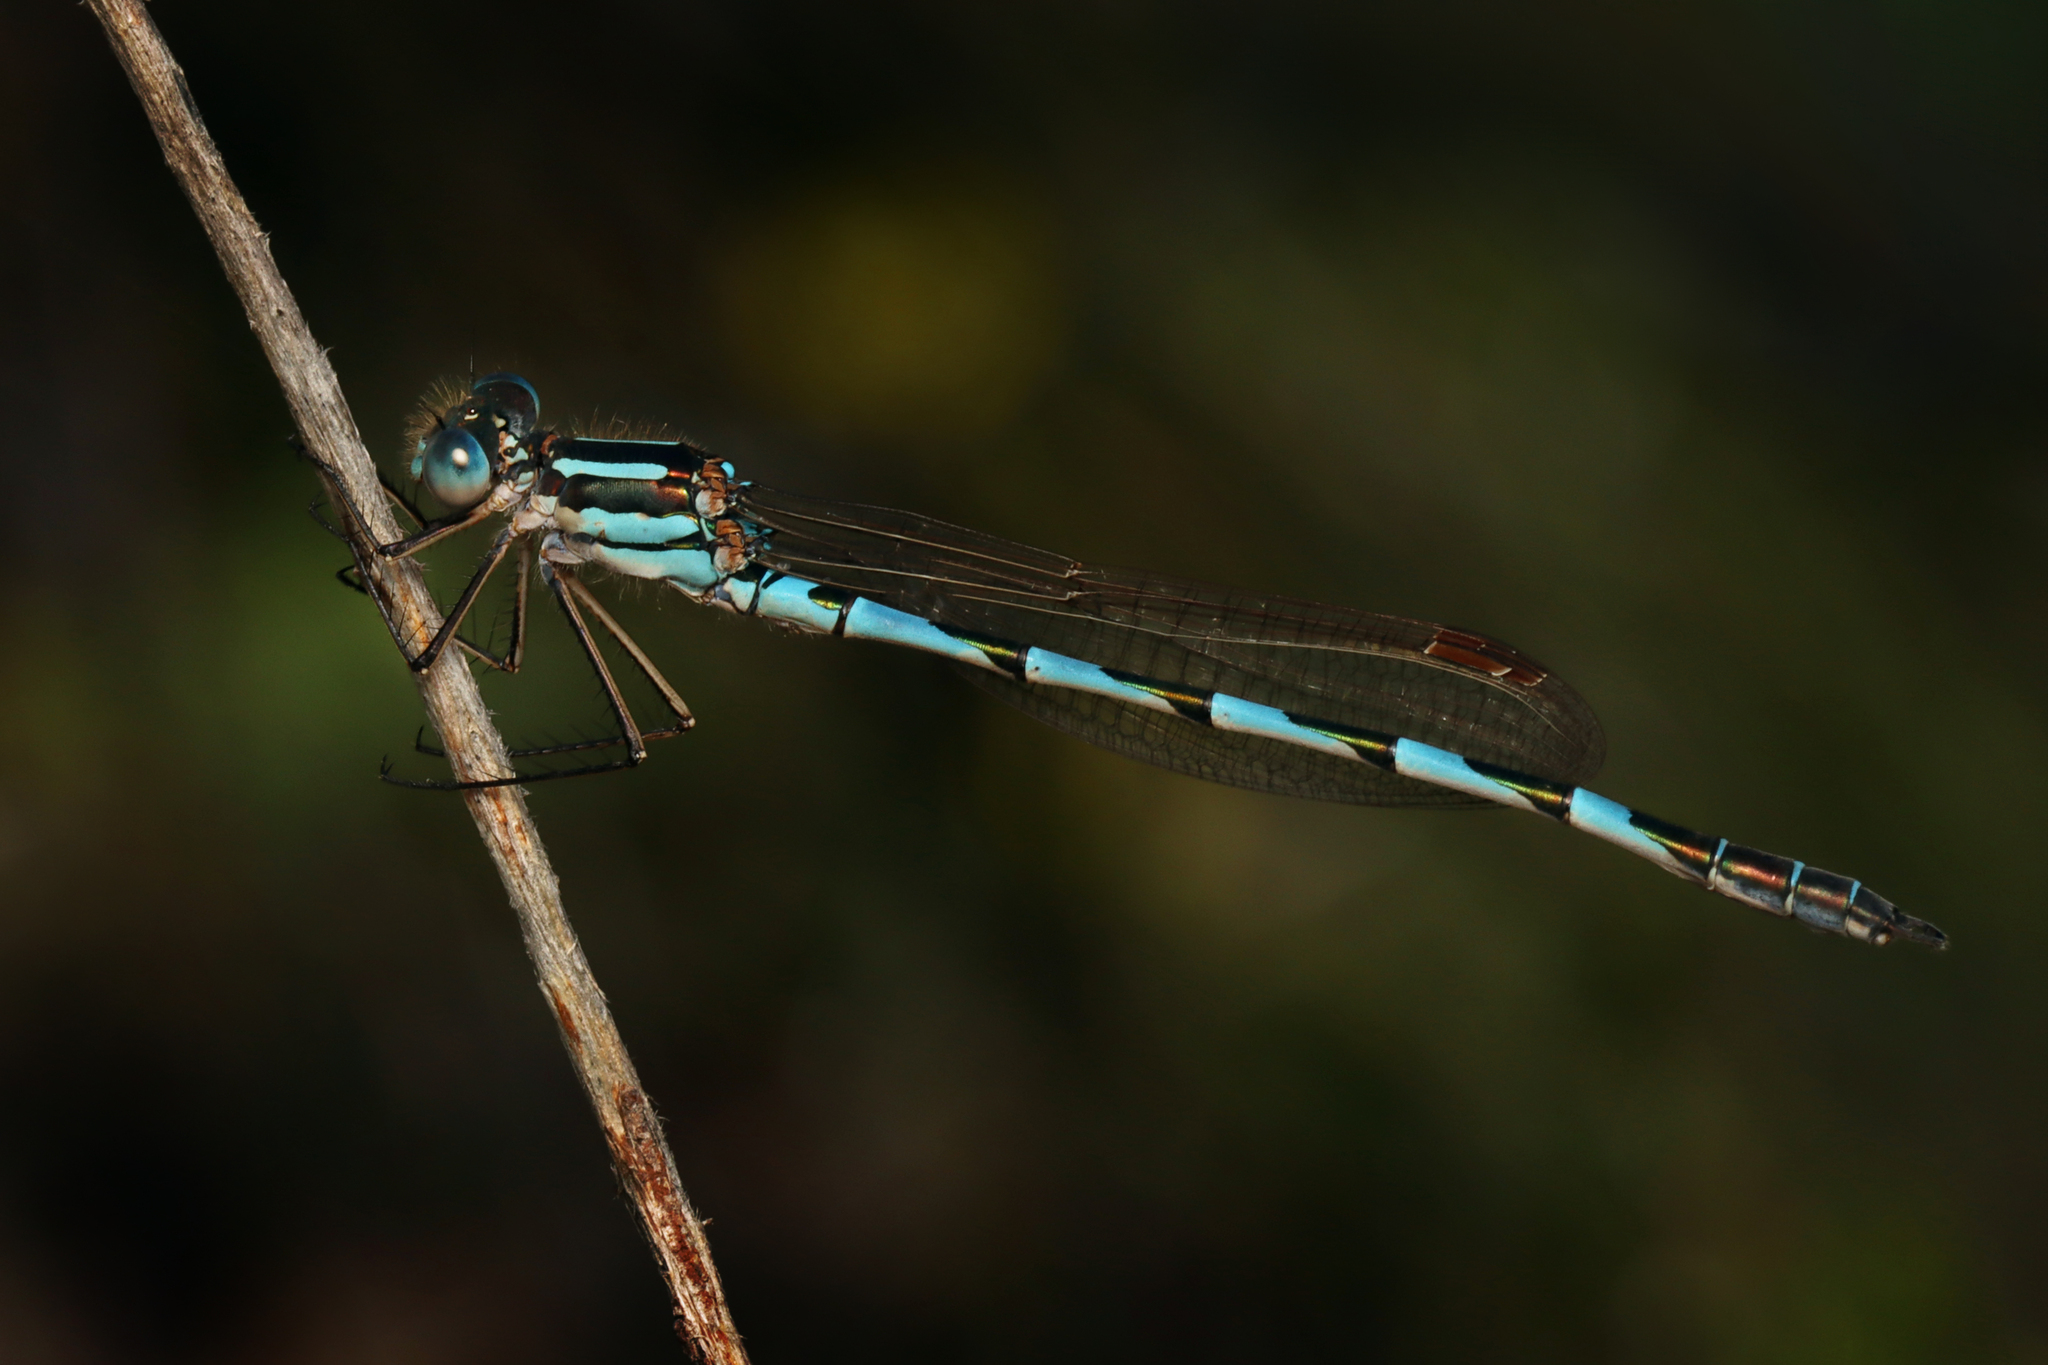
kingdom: Animalia
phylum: Arthropoda
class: Insecta
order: Odonata
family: Lestidae
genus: Austrolestes
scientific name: Austrolestes annulosus
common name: Blue ringtail
